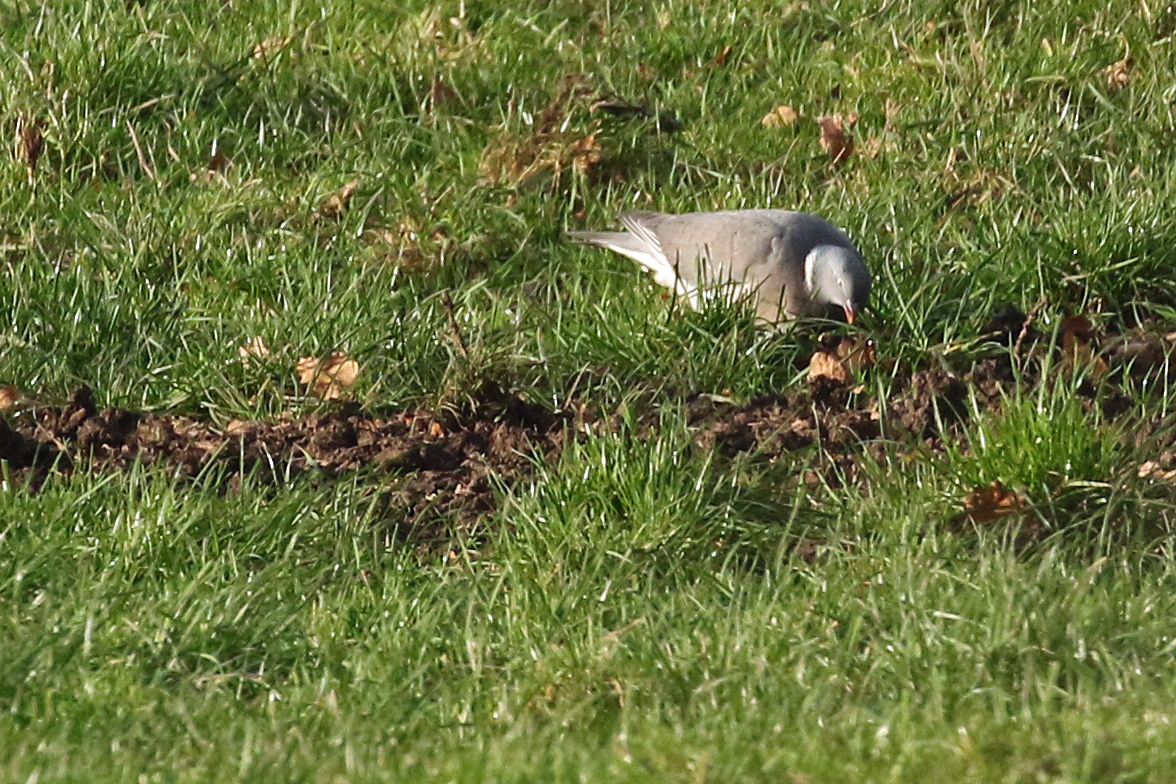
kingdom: Animalia
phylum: Chordata
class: Aves
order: Columbiformes
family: Columbidae
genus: Columba
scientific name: Columba palumbus
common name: Common wood pigeon
